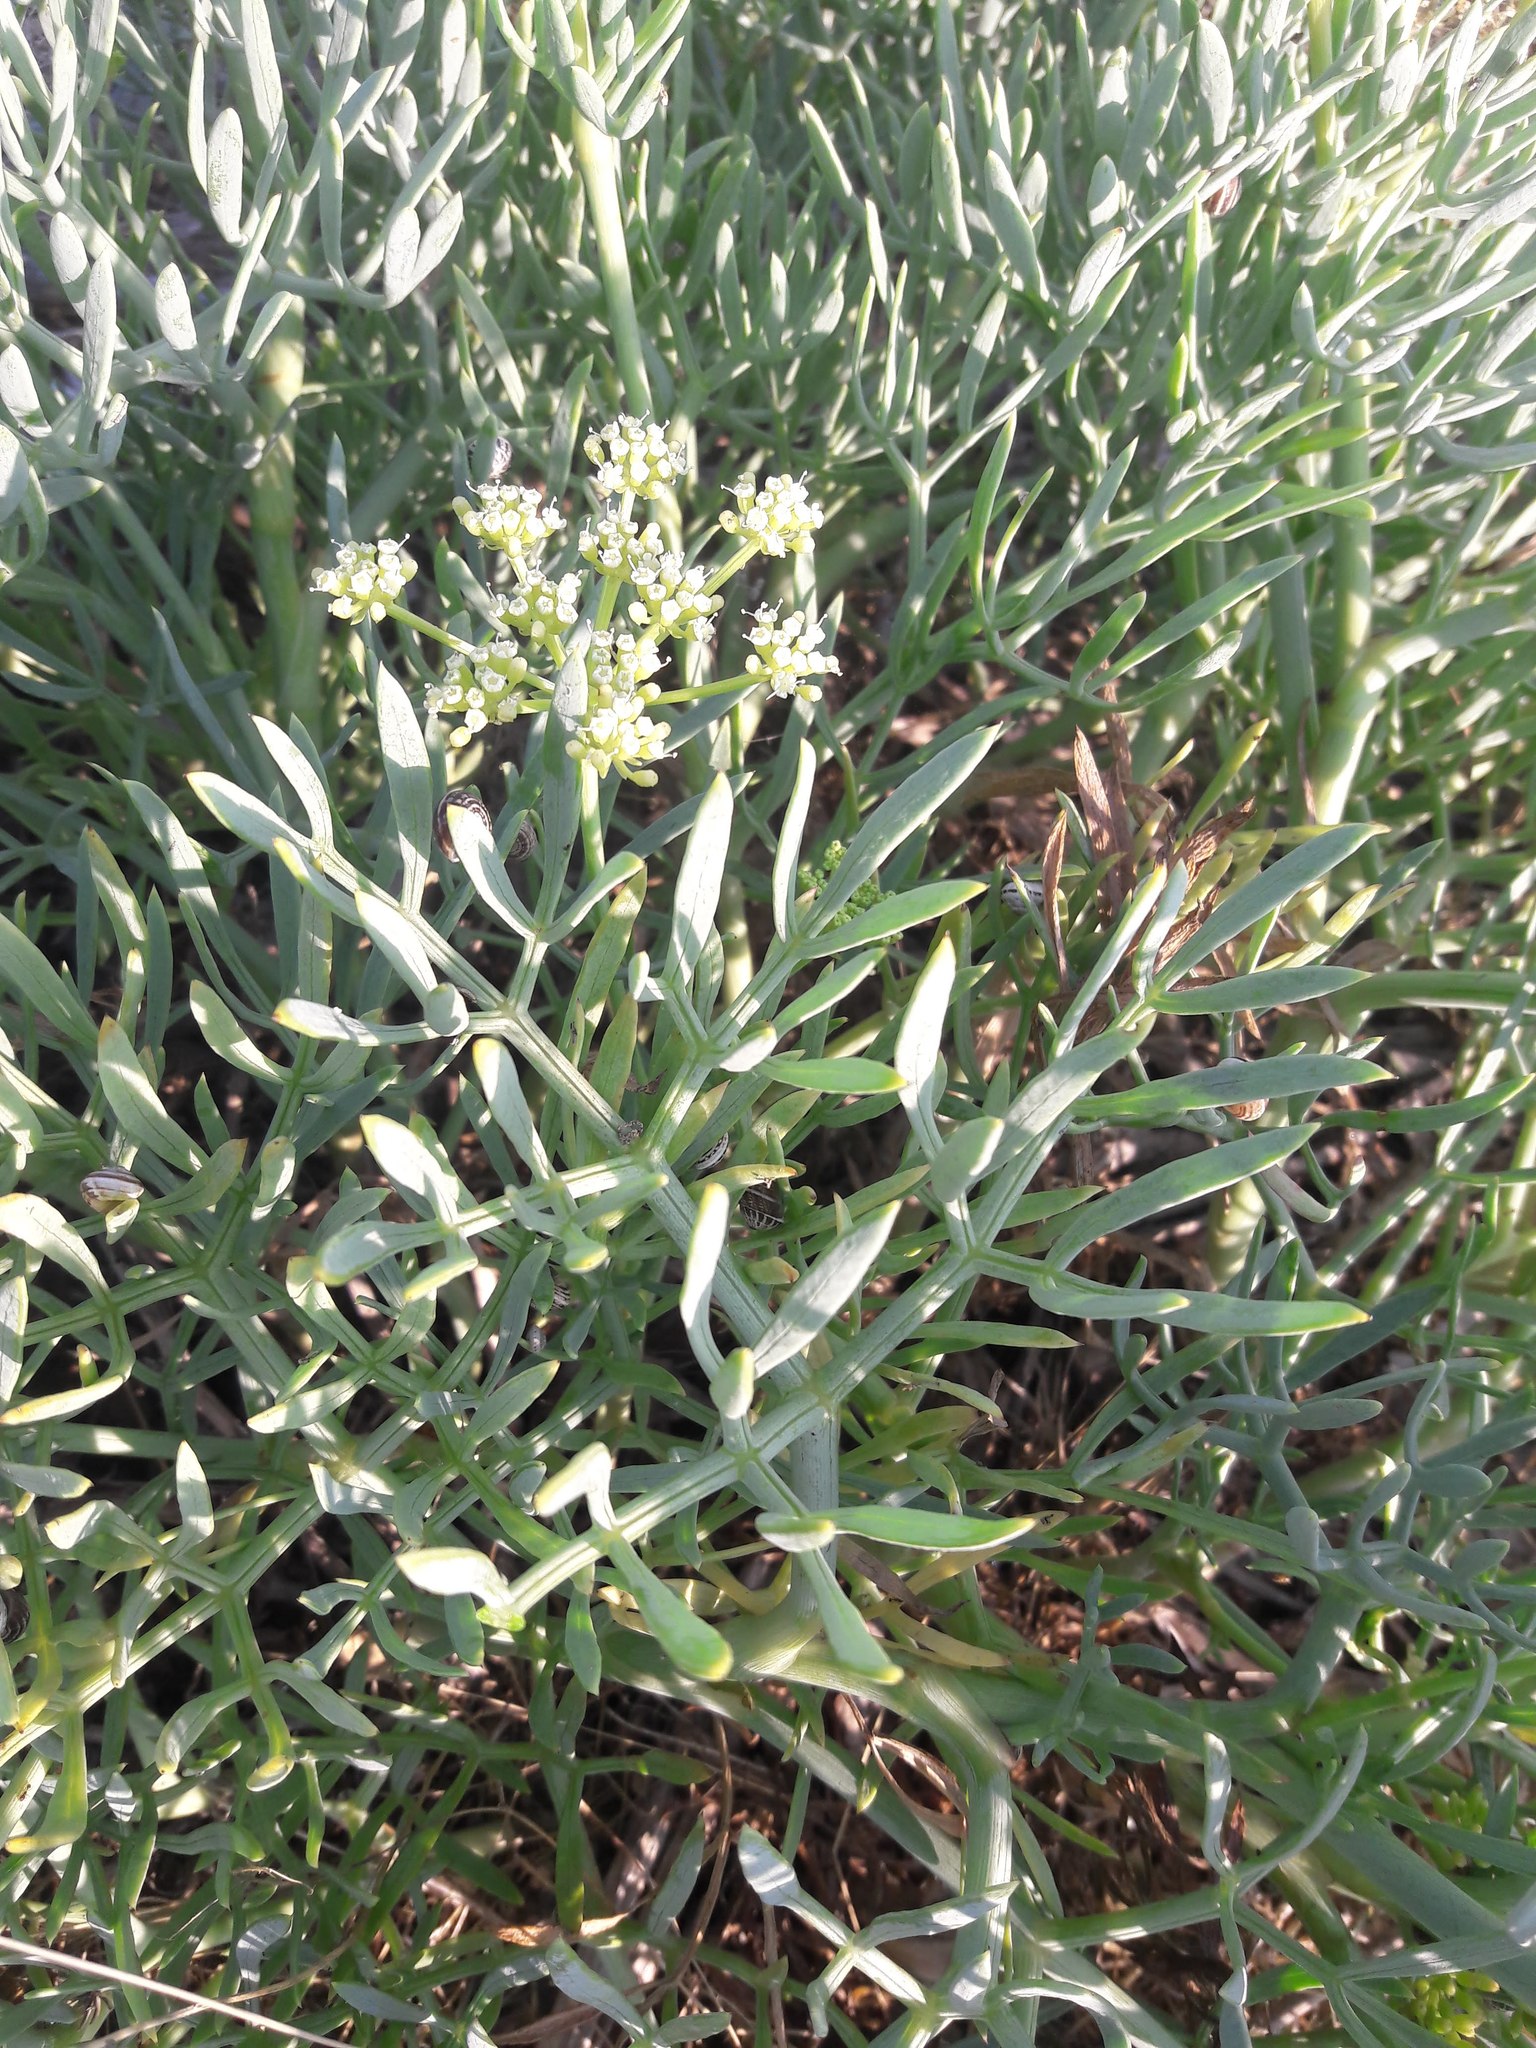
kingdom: Plantae
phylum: Tracheophyta
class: Magnoliopsida
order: Apiales
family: Apiaceae
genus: Crithmum
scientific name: Crithmum maritimum
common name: Rock samphire
